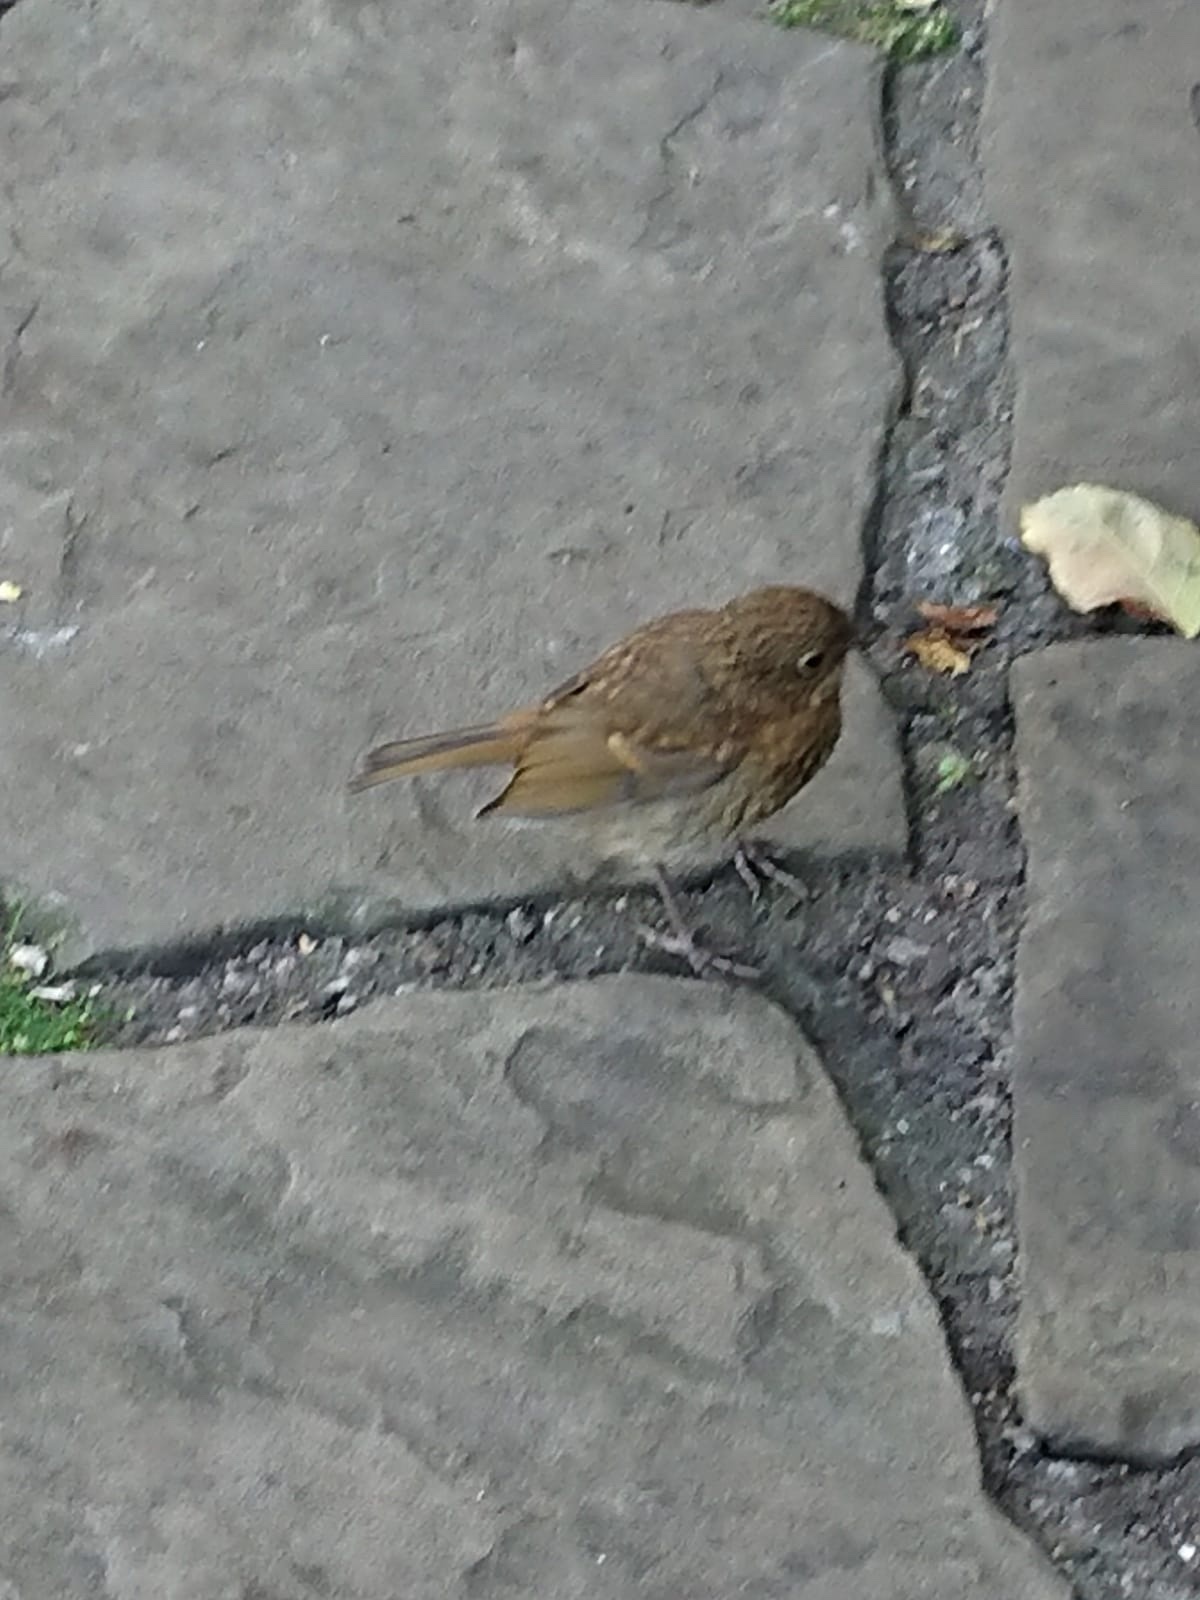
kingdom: Animalia
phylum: Chordata
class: Aves
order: Passeriformes
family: Muscicapidae
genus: Erithacus
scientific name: Erithacus rubecula
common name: European robin
